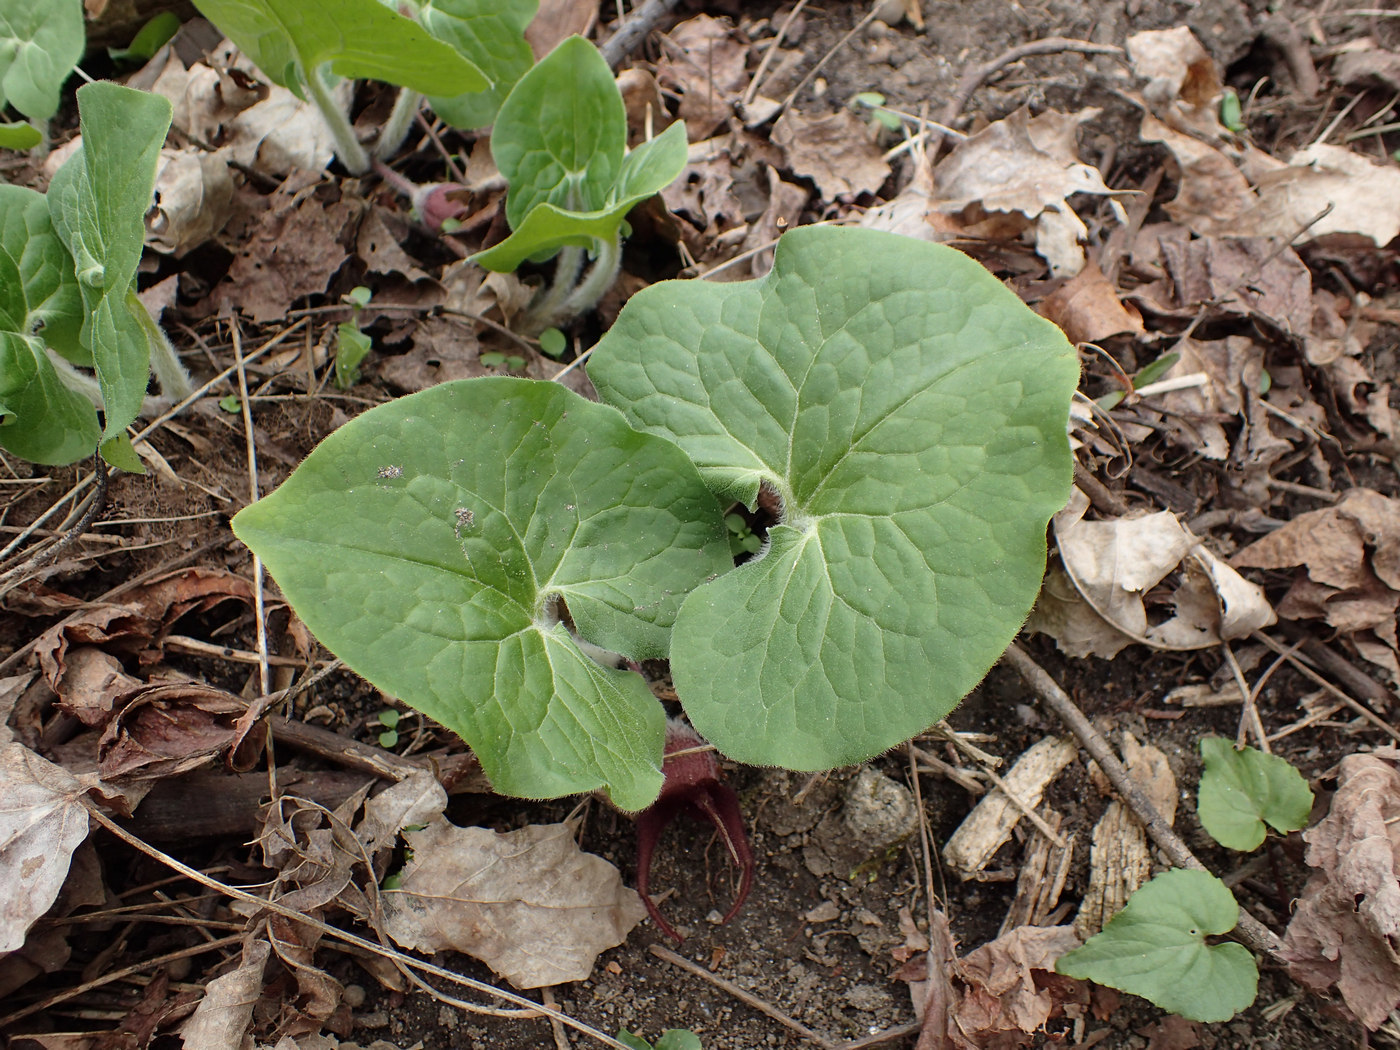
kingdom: Plantae
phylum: Tracheophyta
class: Magnoliopsida
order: Piperales
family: Aristolochiaceae
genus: Asarum
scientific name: Asarum canadense
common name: Wild ginger
